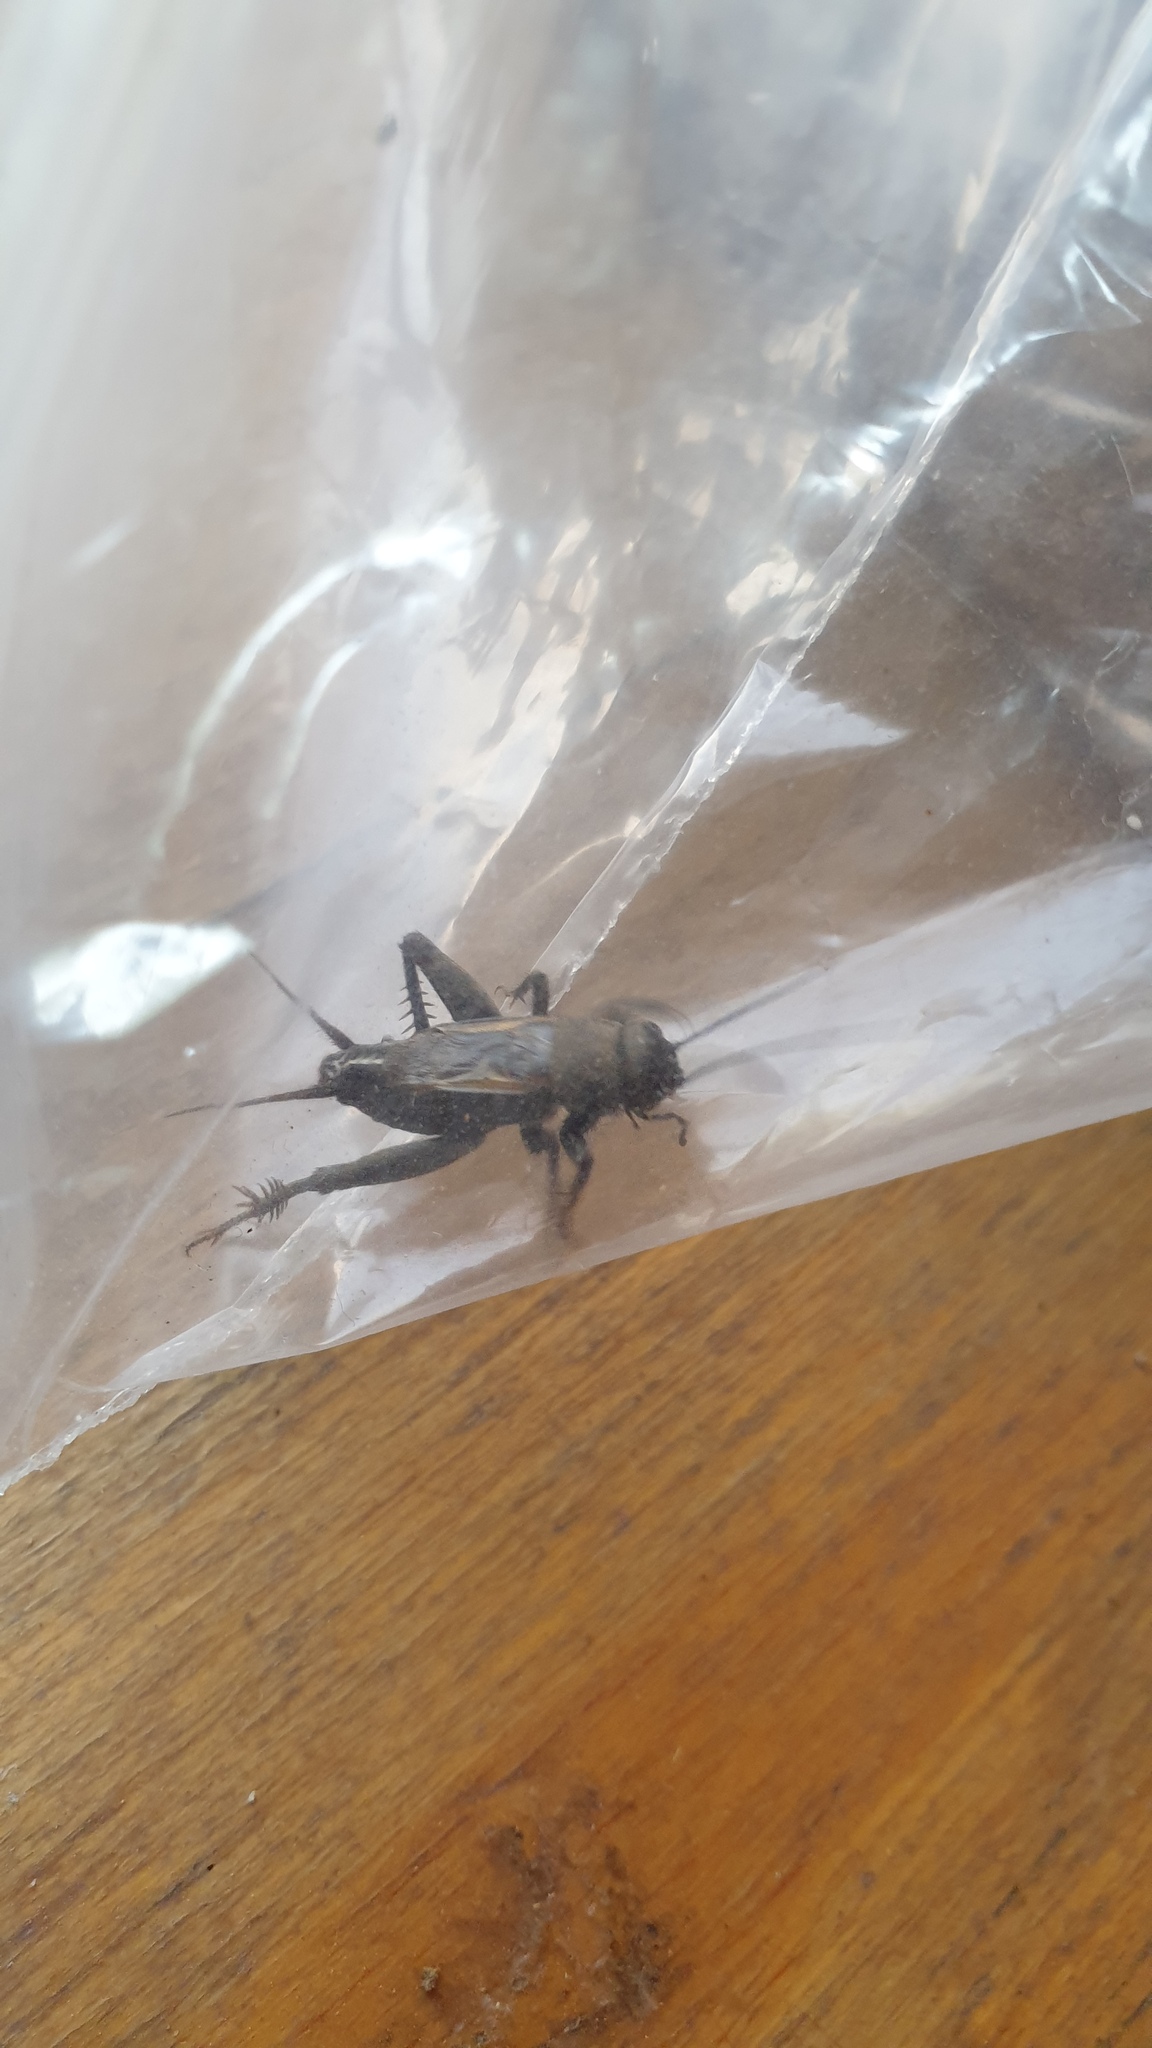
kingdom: Animalia
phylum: Arthropoda
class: Insecta
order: Orthoptera
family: Gryllidae
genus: Melanogryllus
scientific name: Melanogryllus desertus
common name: Desert cricket
